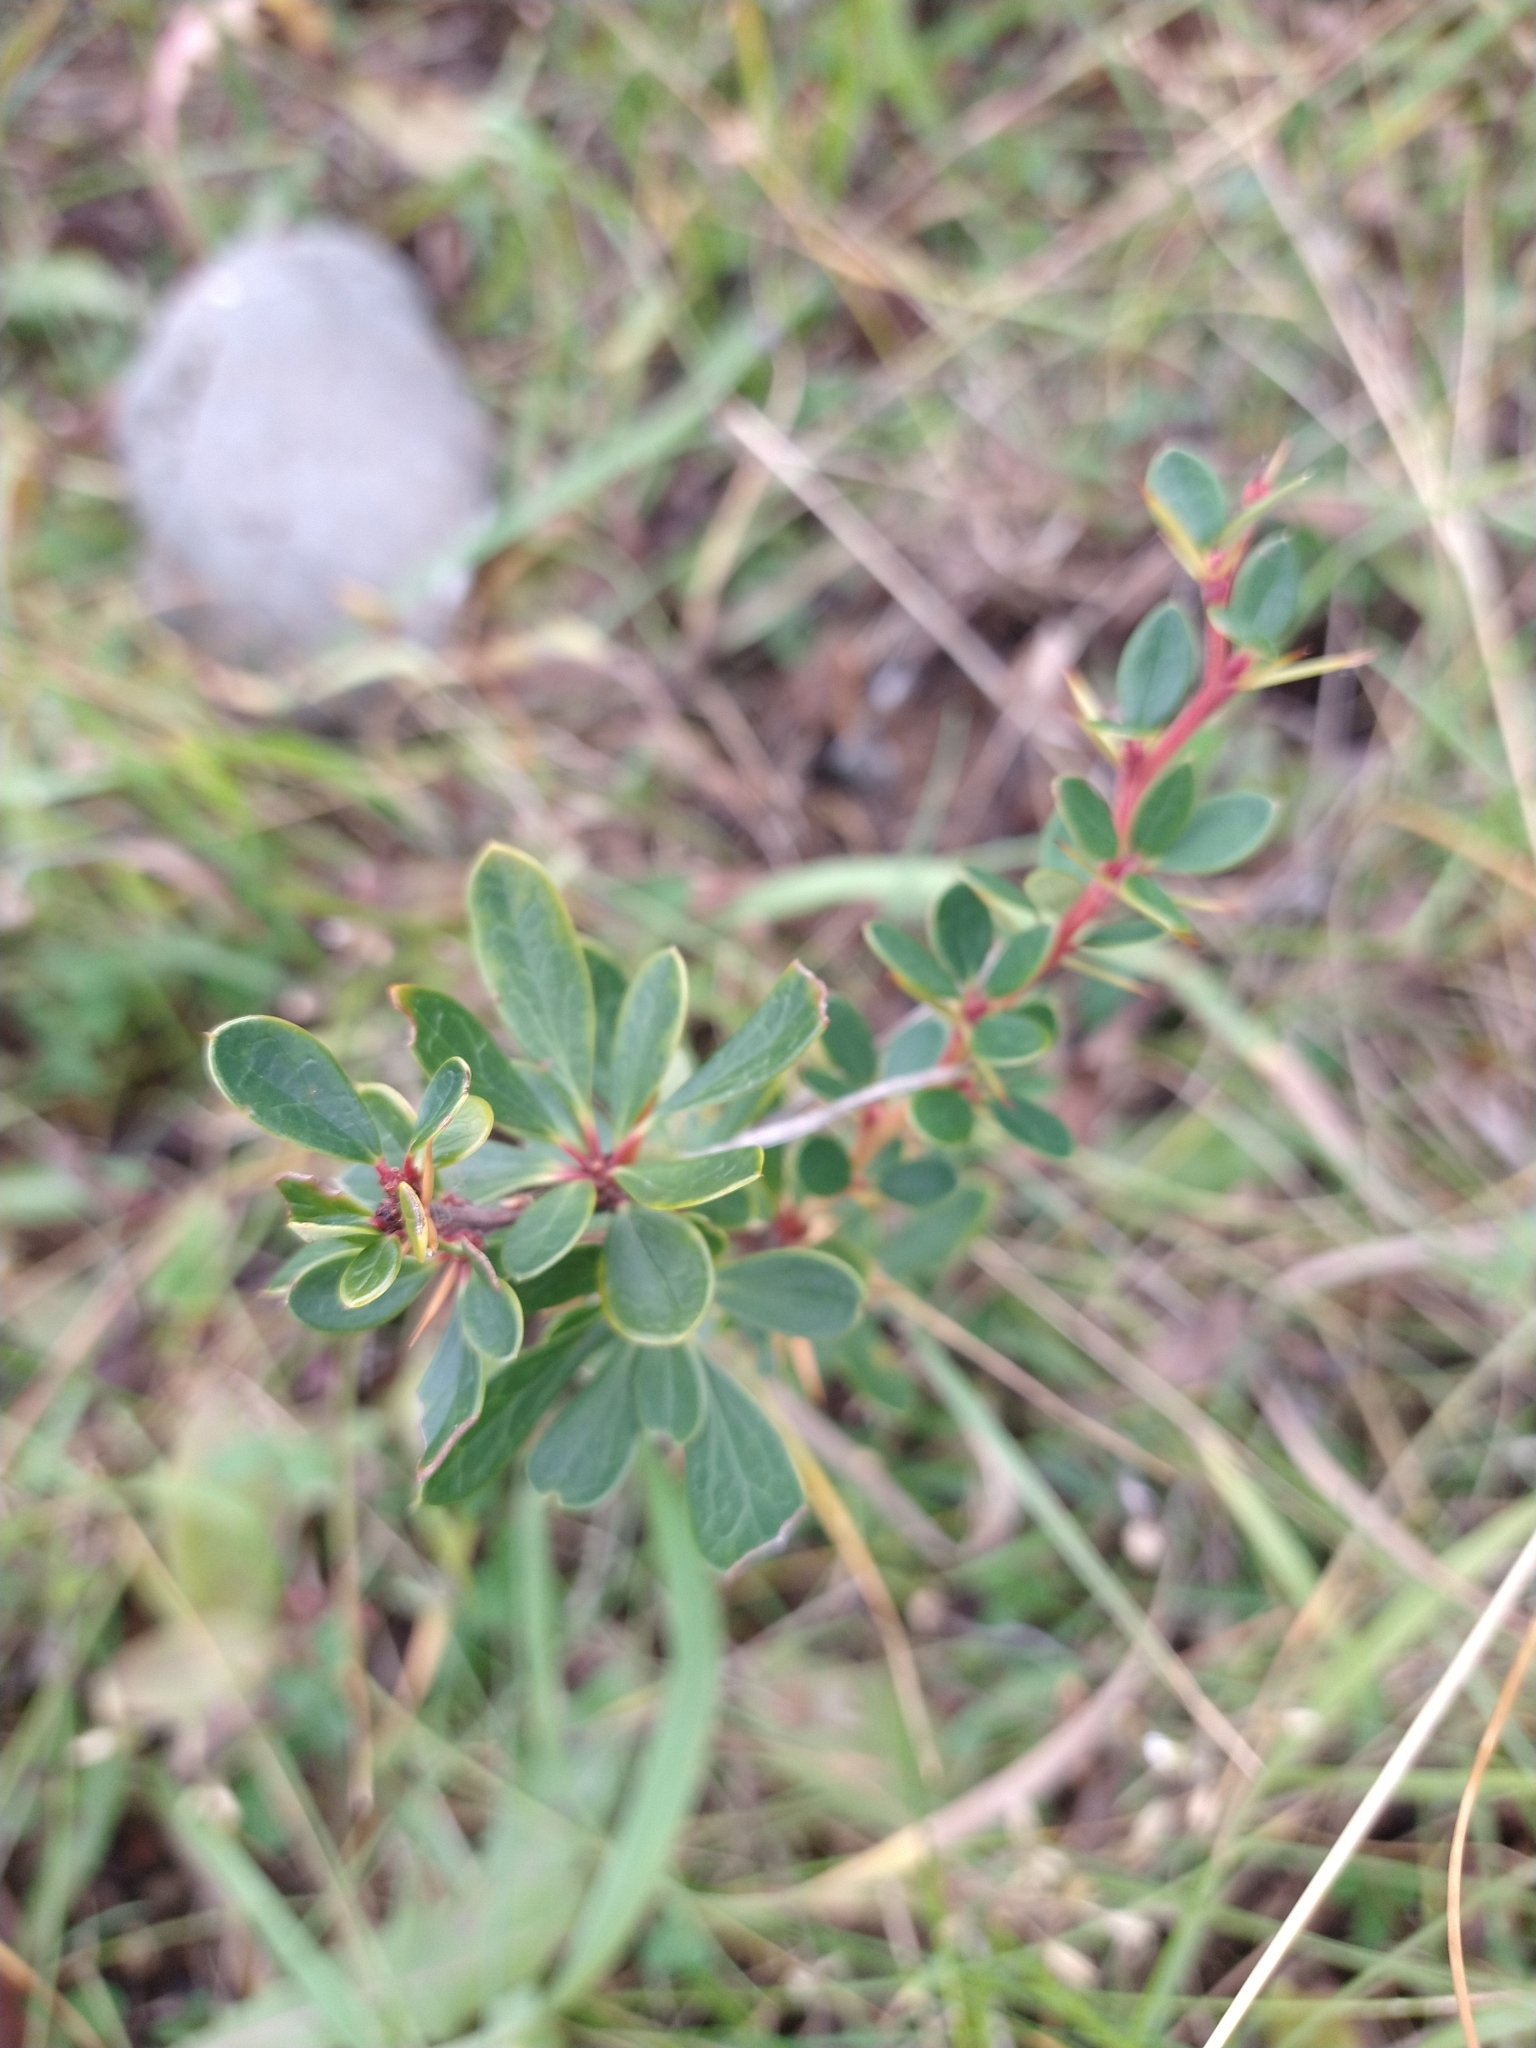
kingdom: Plantae
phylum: Tracheophyta
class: Magnoliopsida
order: Ranunculales
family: Berberidaceae
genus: Berberis
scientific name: Berberis microphylla
